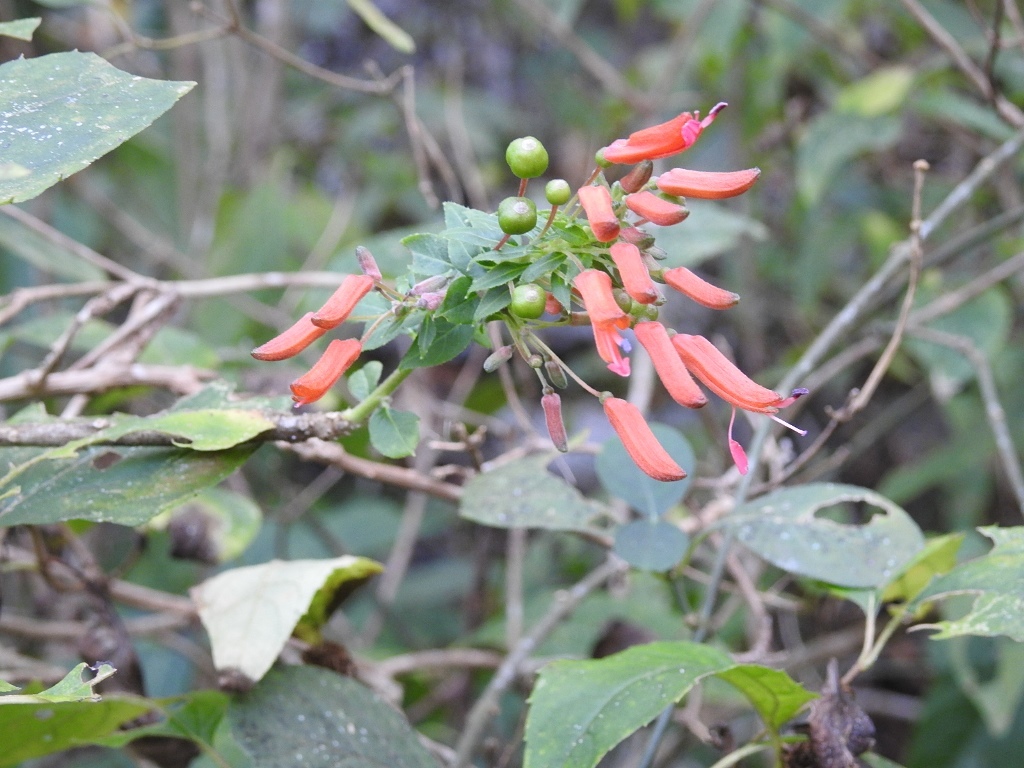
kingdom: Plantae
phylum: Tracheophyta
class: Magnoliopsida
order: Myrtales
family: Onagraceae
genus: Lopezia
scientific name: Lopezia grandiflora
